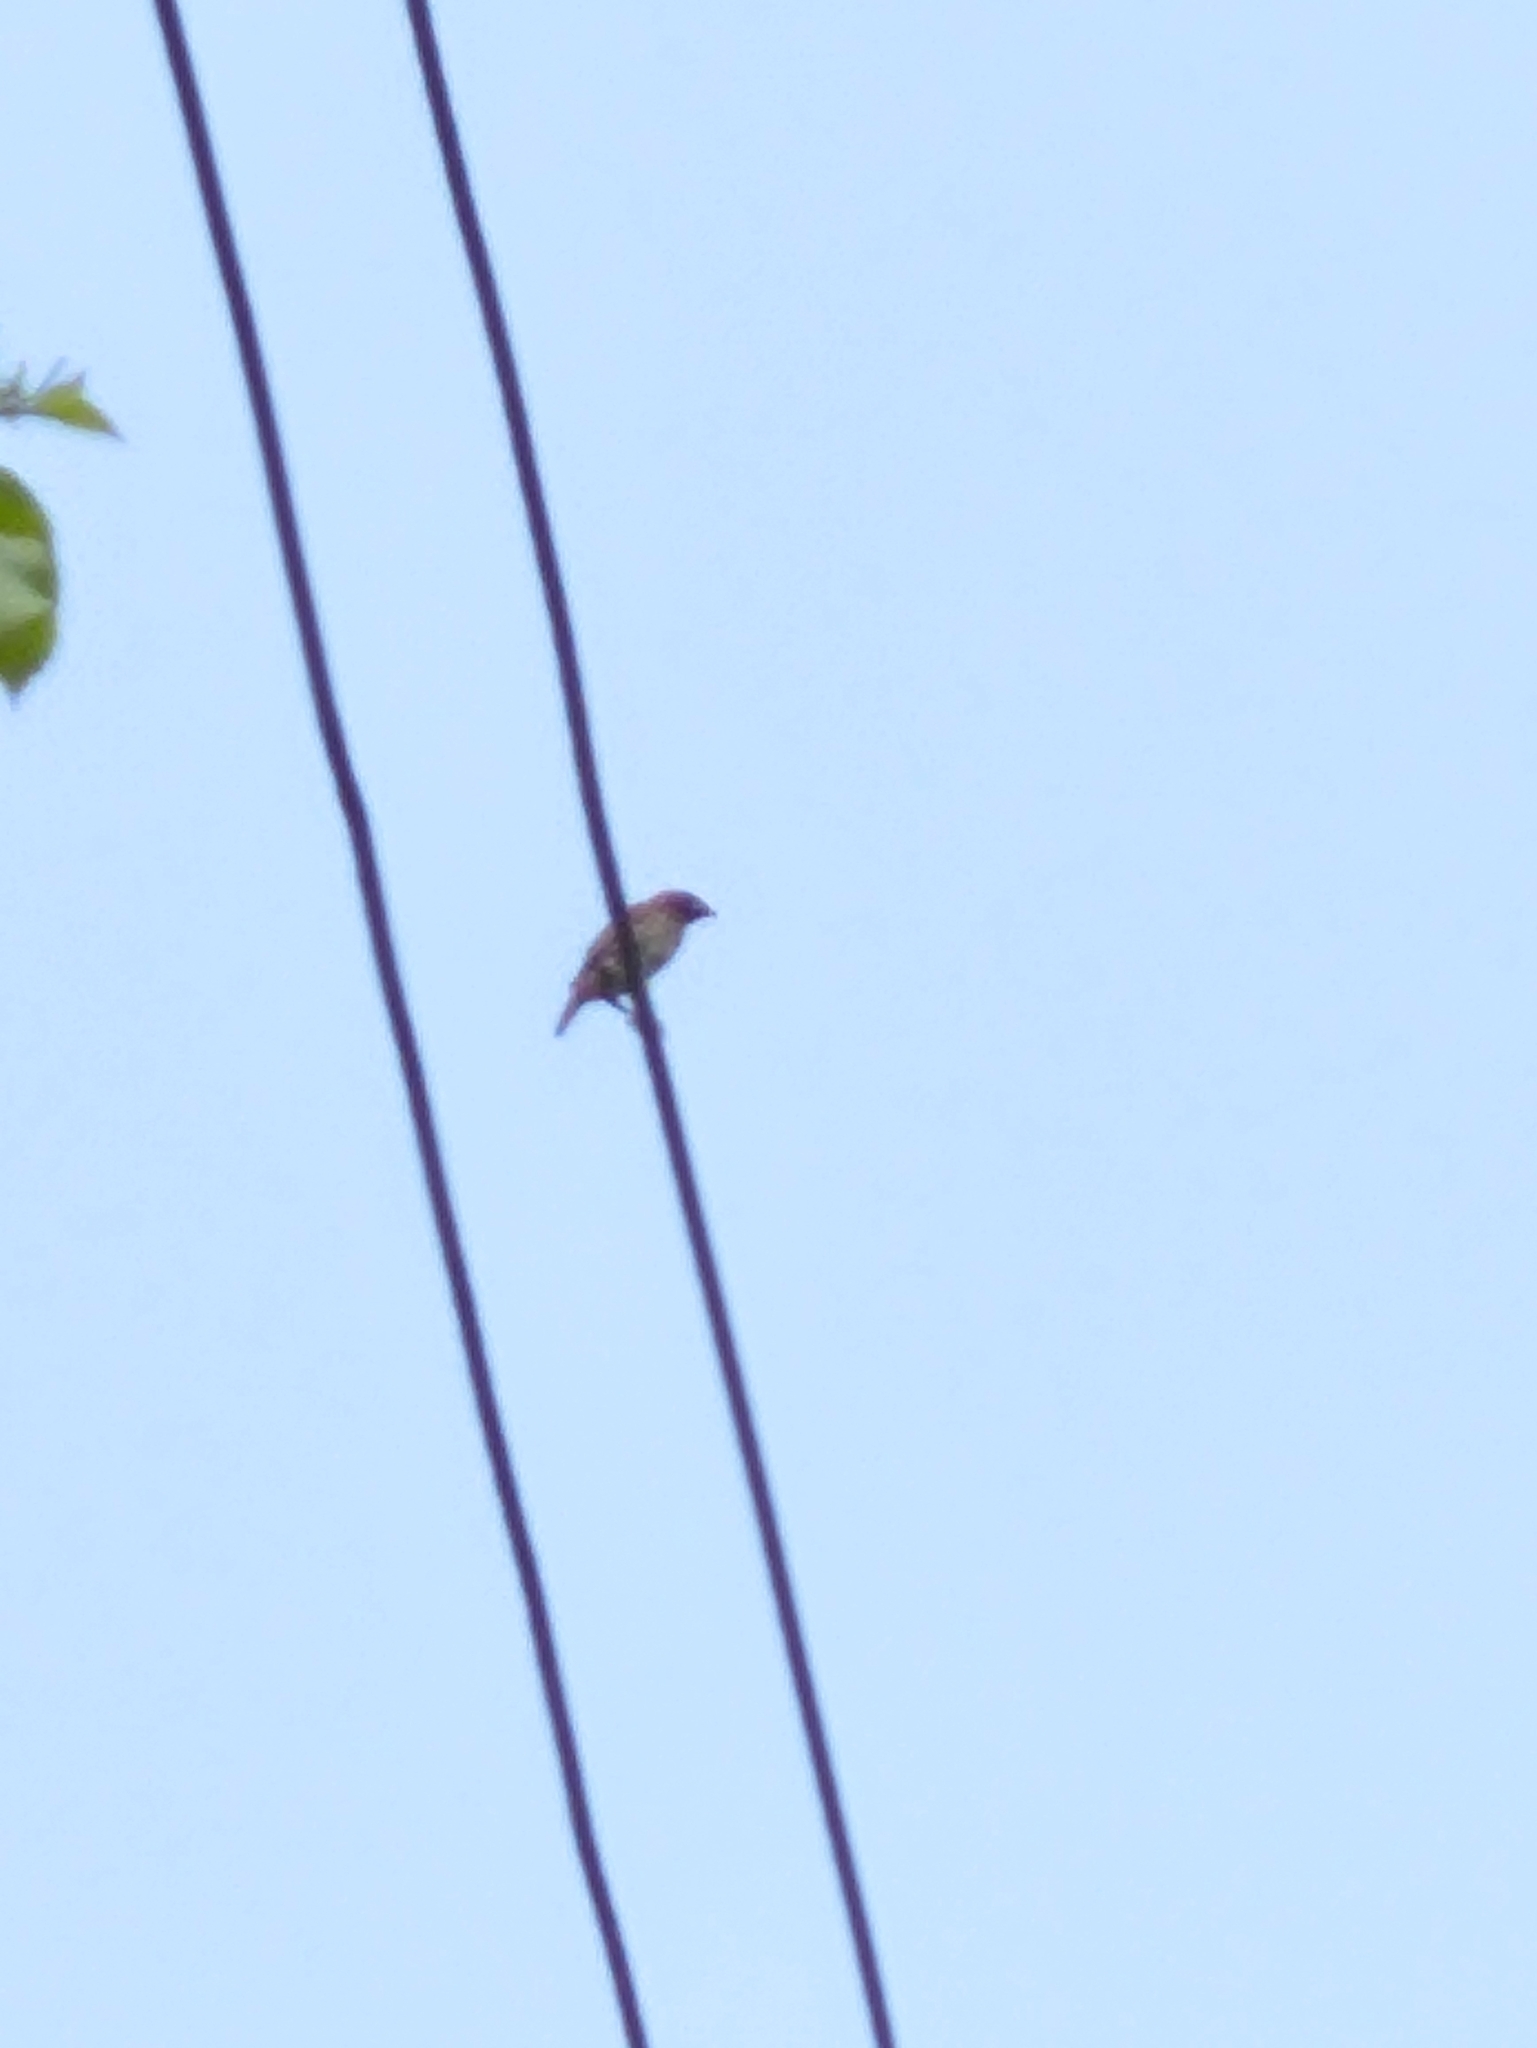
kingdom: Animalia
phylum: Chordata
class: Aves
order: Passeriformes
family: Estrildidae
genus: Lonchura
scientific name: Lonchura punctulata
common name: Scaly-breasted munia
